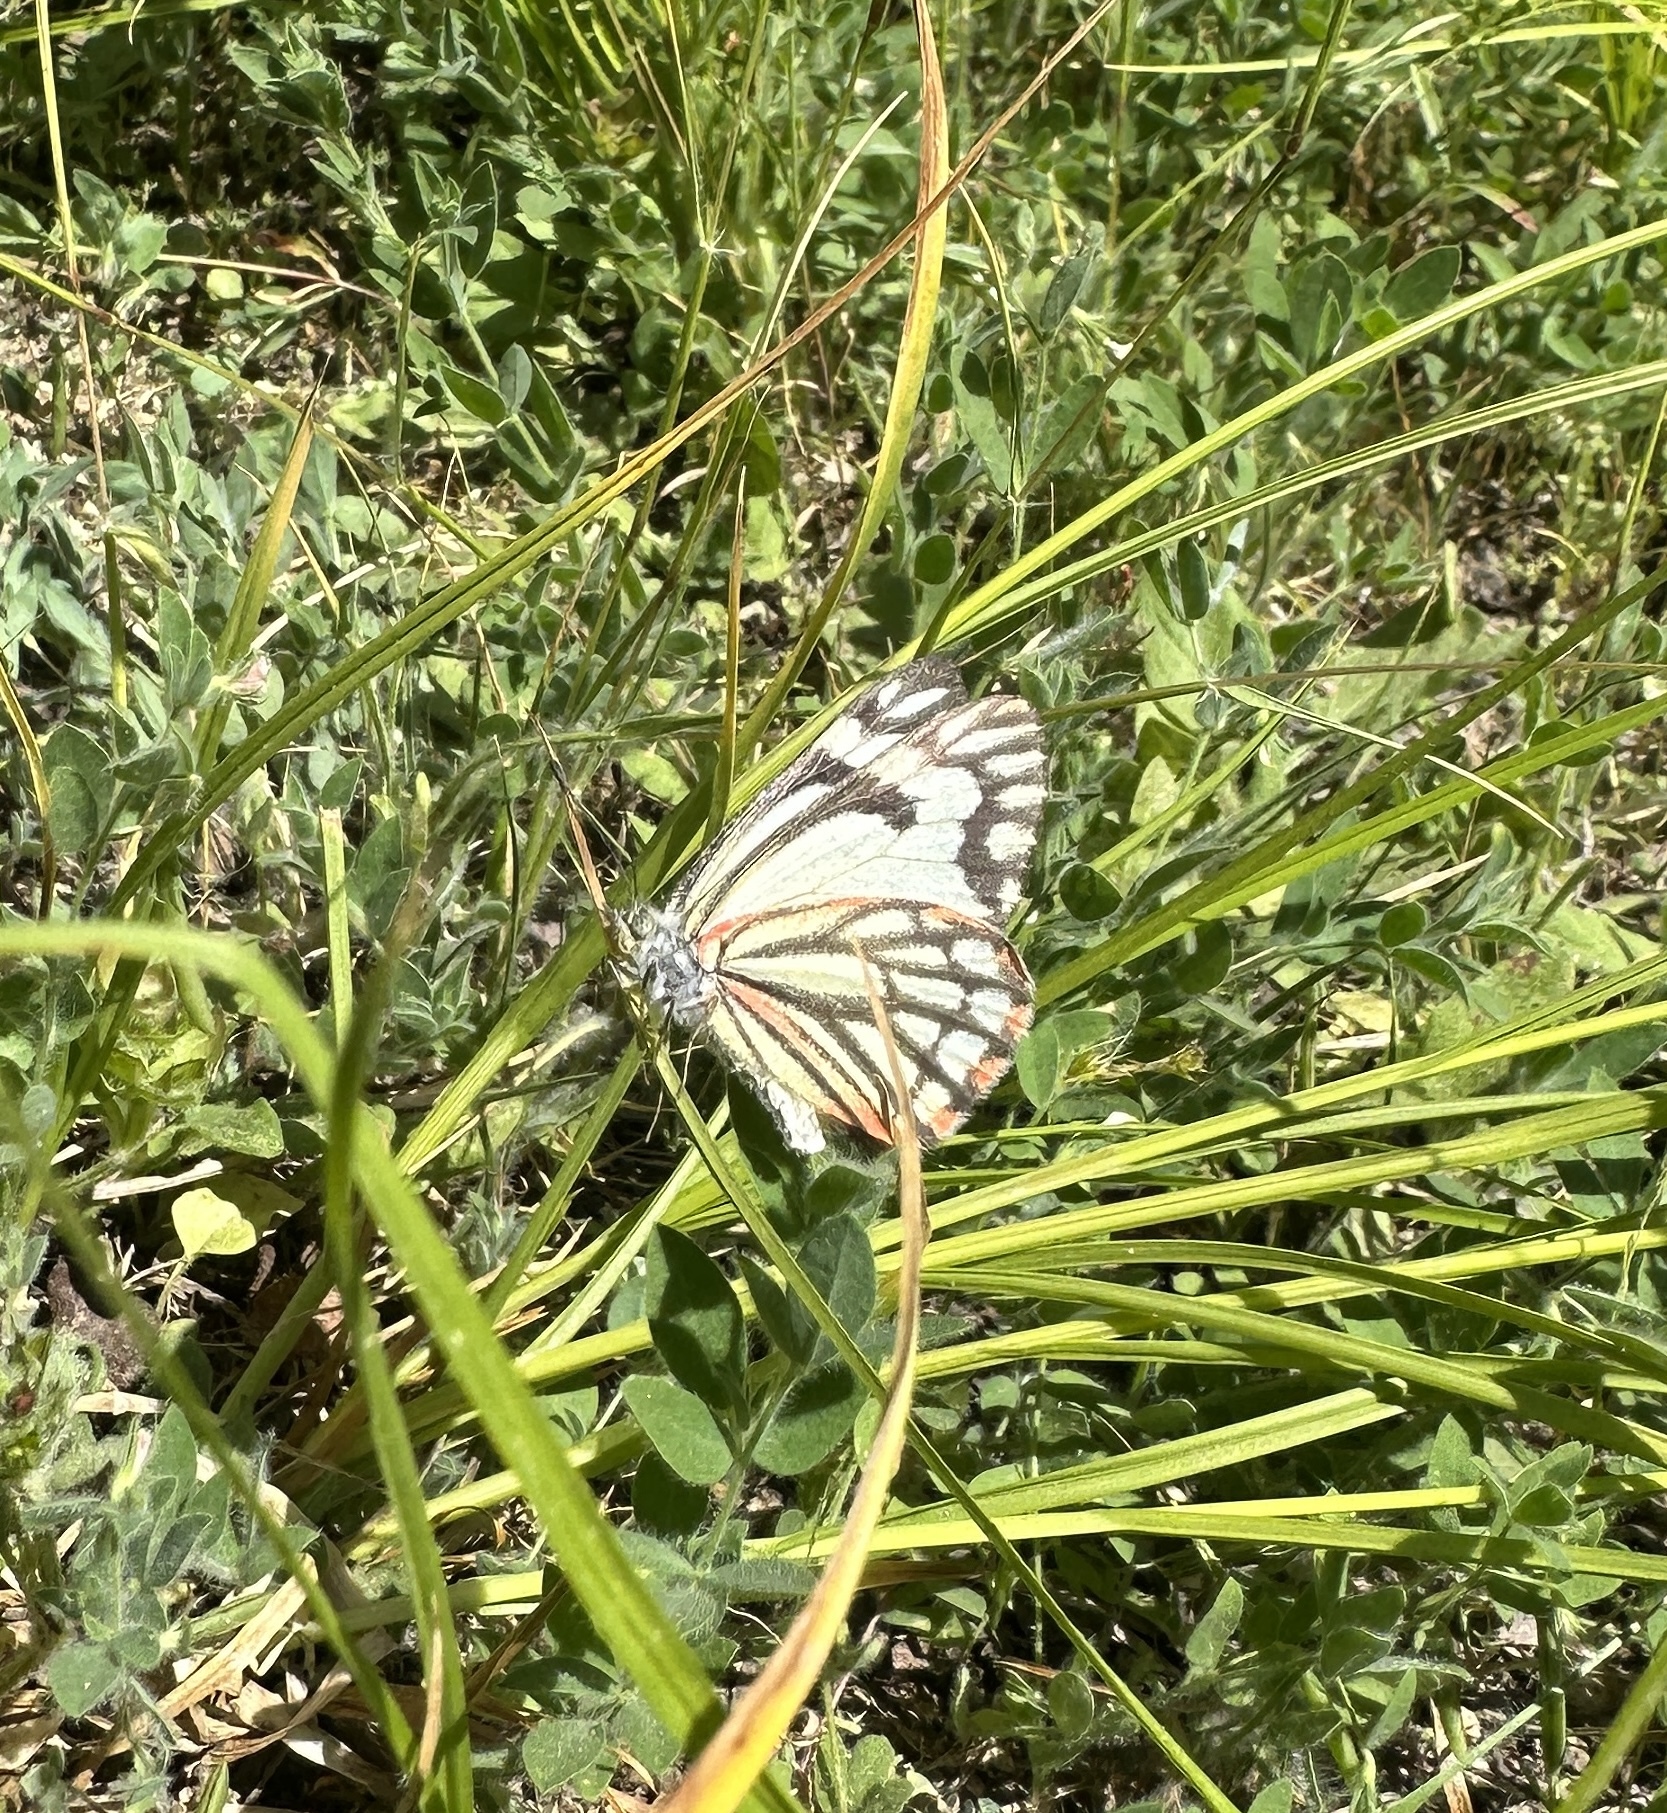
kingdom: Animalia
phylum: Arthropoda
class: Insecta
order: Lepidoptera
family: Pieridae
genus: Neophasia
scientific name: Neophasia menapia
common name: Pine white
